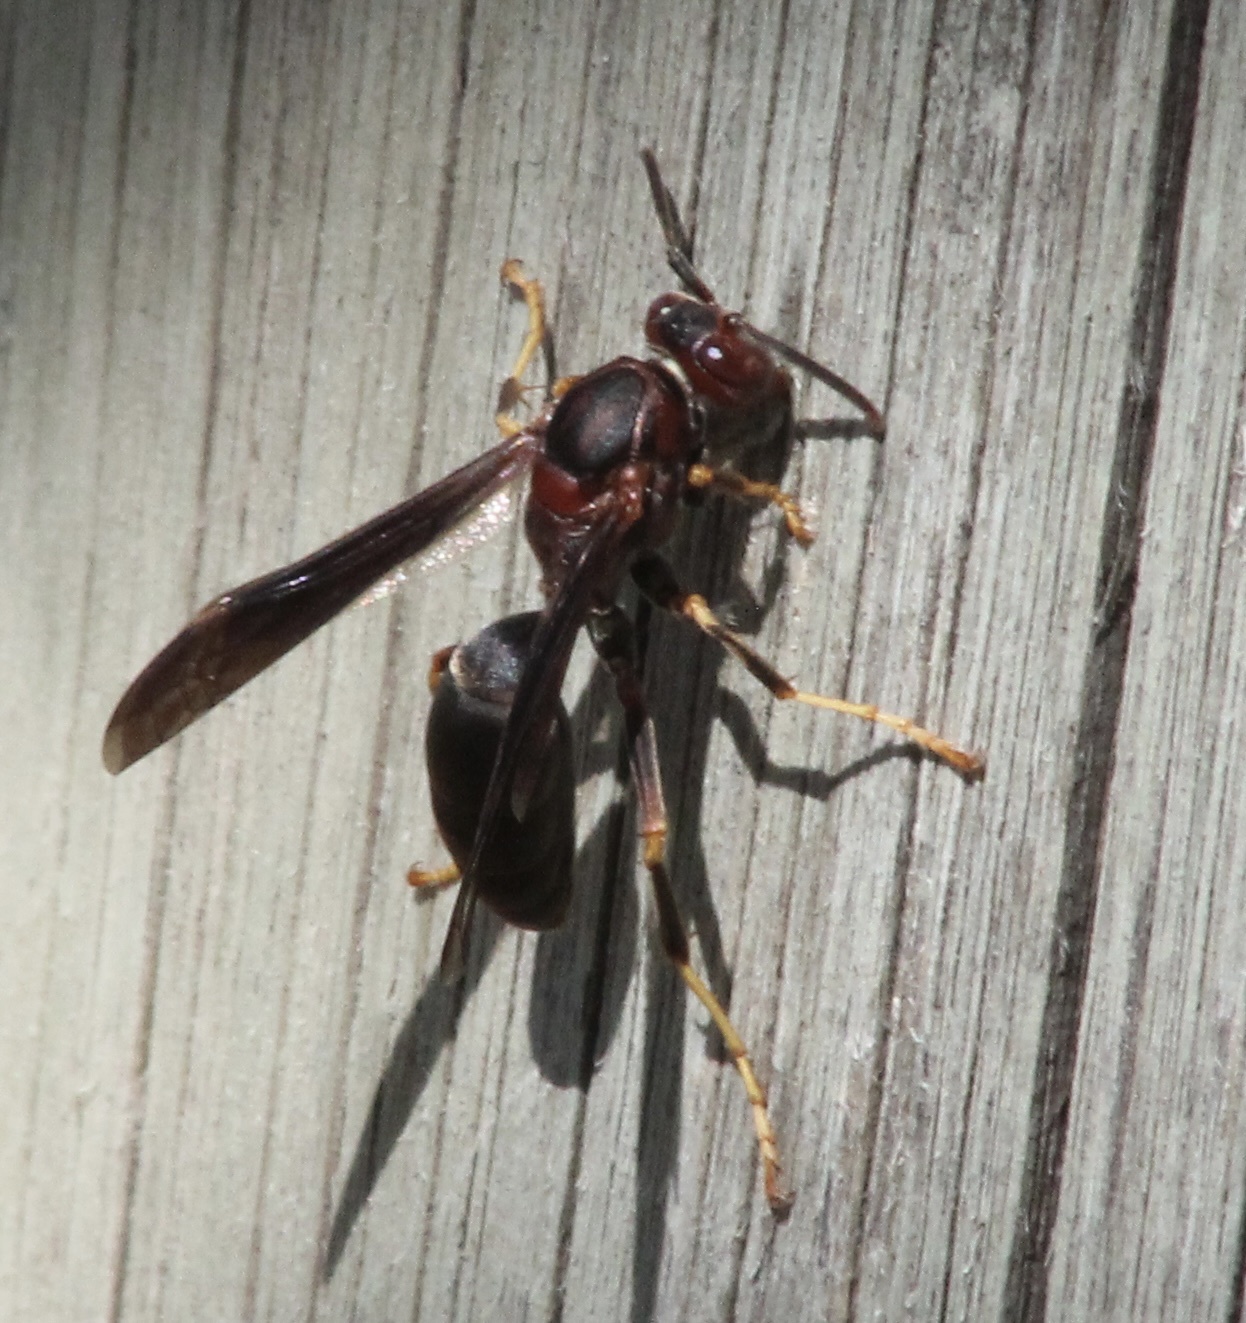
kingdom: Animalia
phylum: Arthropoda
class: Insecta
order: Hymenoptera
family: Eumenidae
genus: Polistes
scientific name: Polistes metricus
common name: Metric paper wasp
